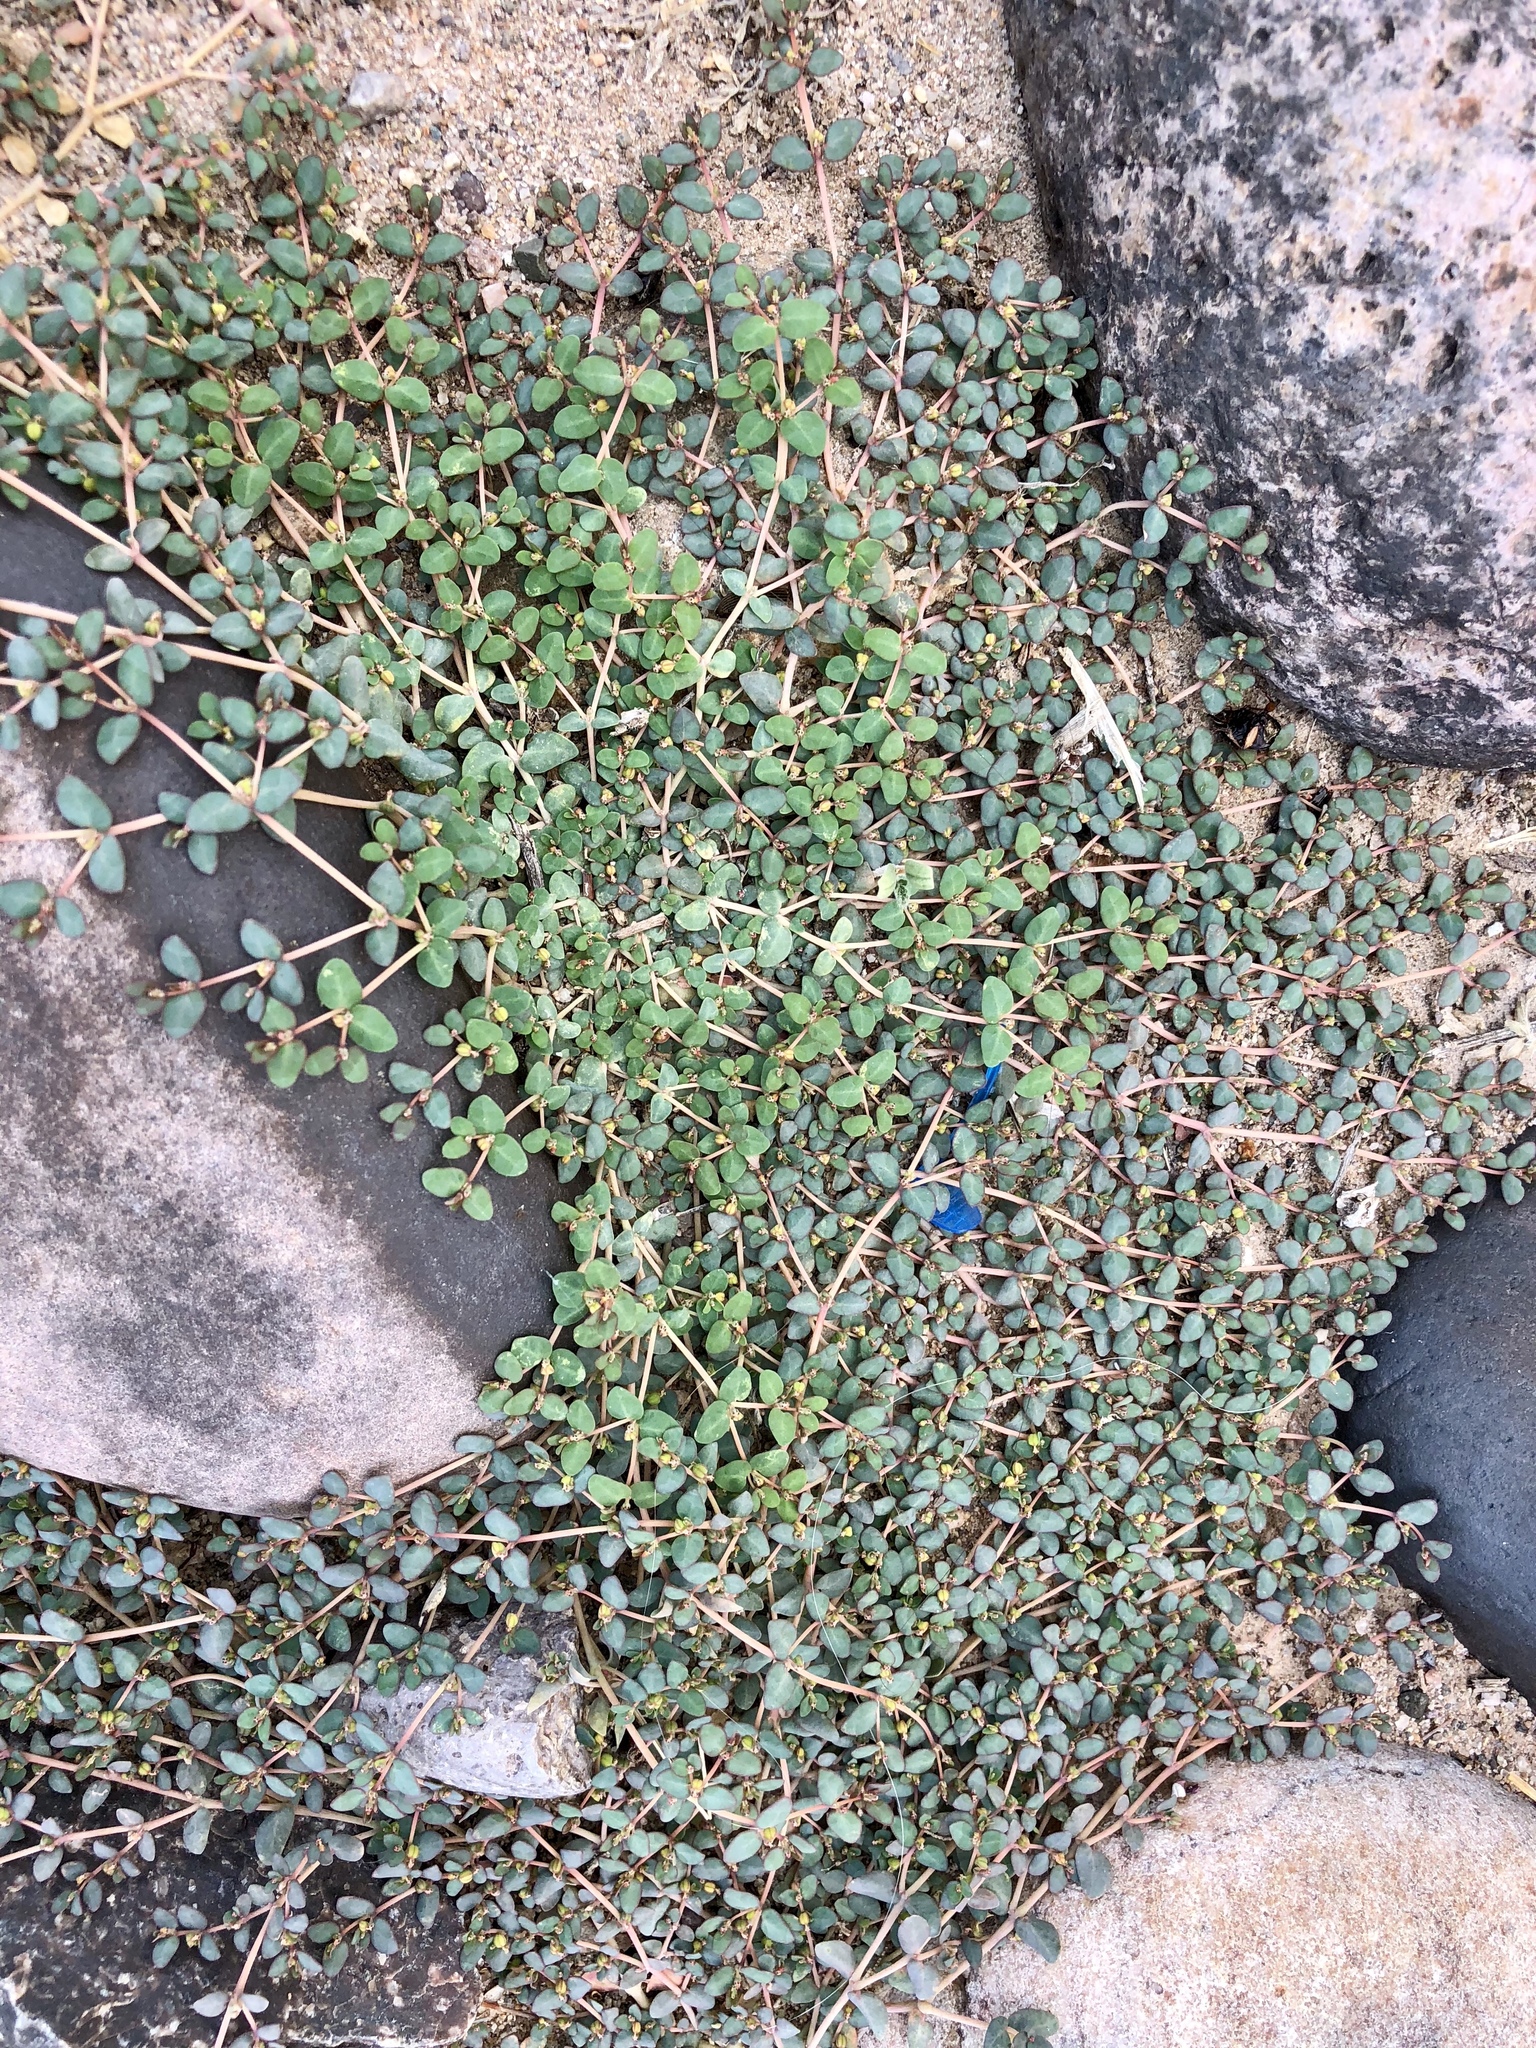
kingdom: Plantae
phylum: Tracheophyta
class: Magnoliopsida
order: Malpighiales
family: Euphorbiaceae
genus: Euphorbia
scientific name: Euphorbia micromera
